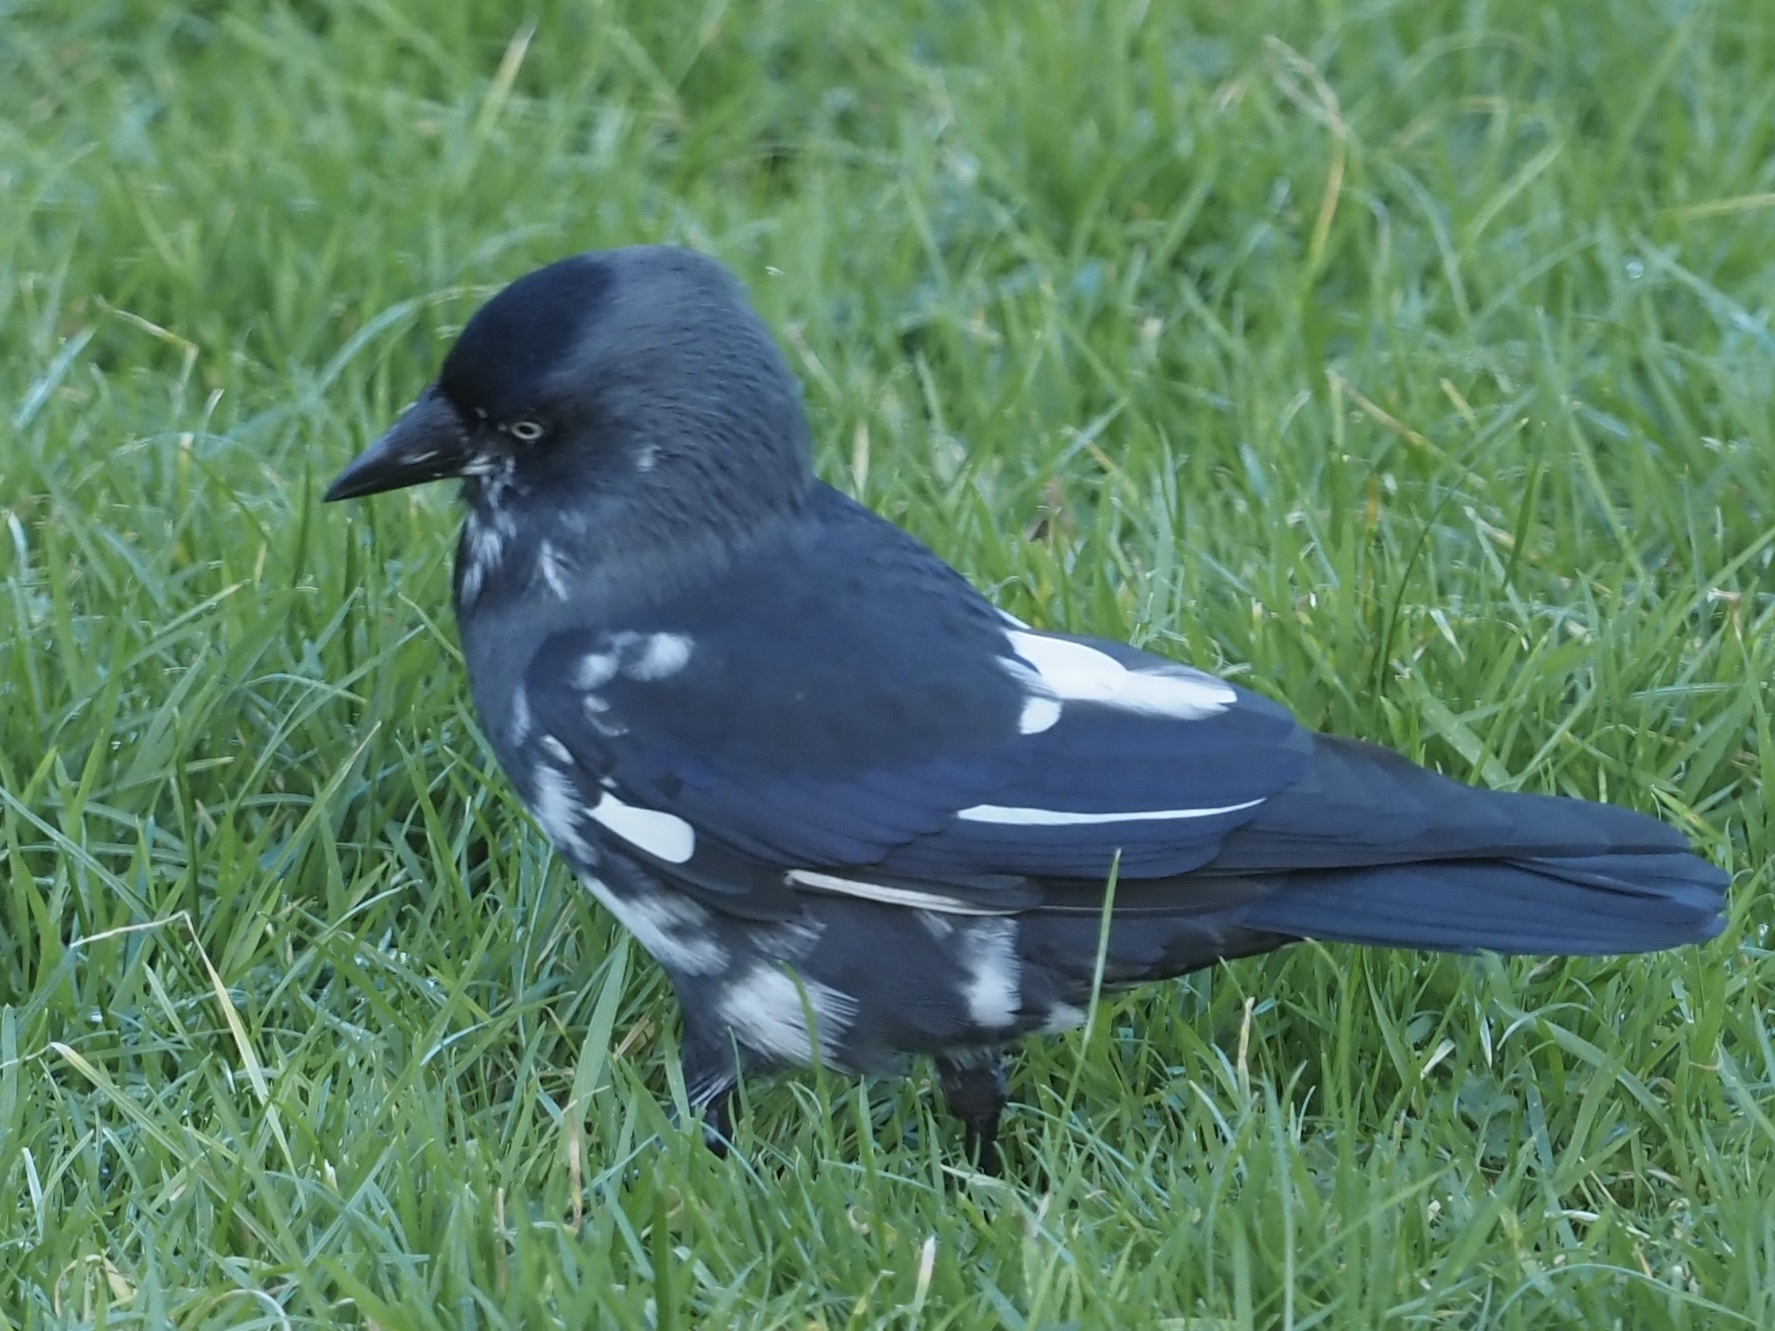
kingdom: Animalia
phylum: Chordata
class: Aves
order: Passeriformes
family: Corvidae
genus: Coloeus
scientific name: Coloeus monedula
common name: Western jackdaw
